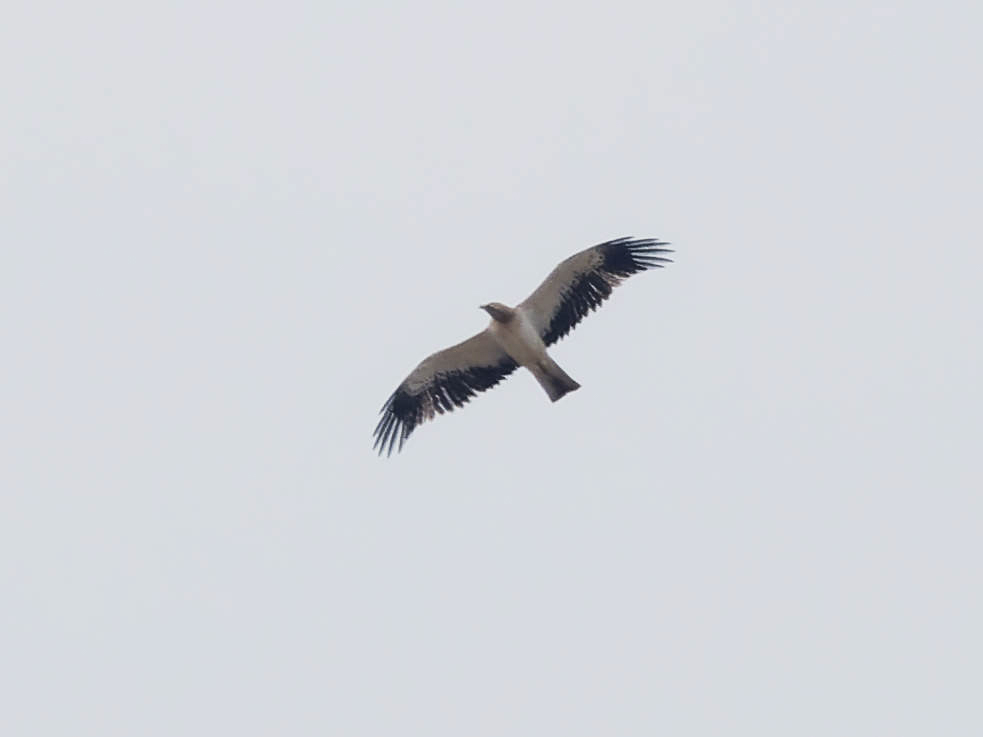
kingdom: Animalia
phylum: Chordata
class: Aves
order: Accipitriformes
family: Accipitridae
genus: Hieraaetus
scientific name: Hieraaetus pennatus
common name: Booted eagle
